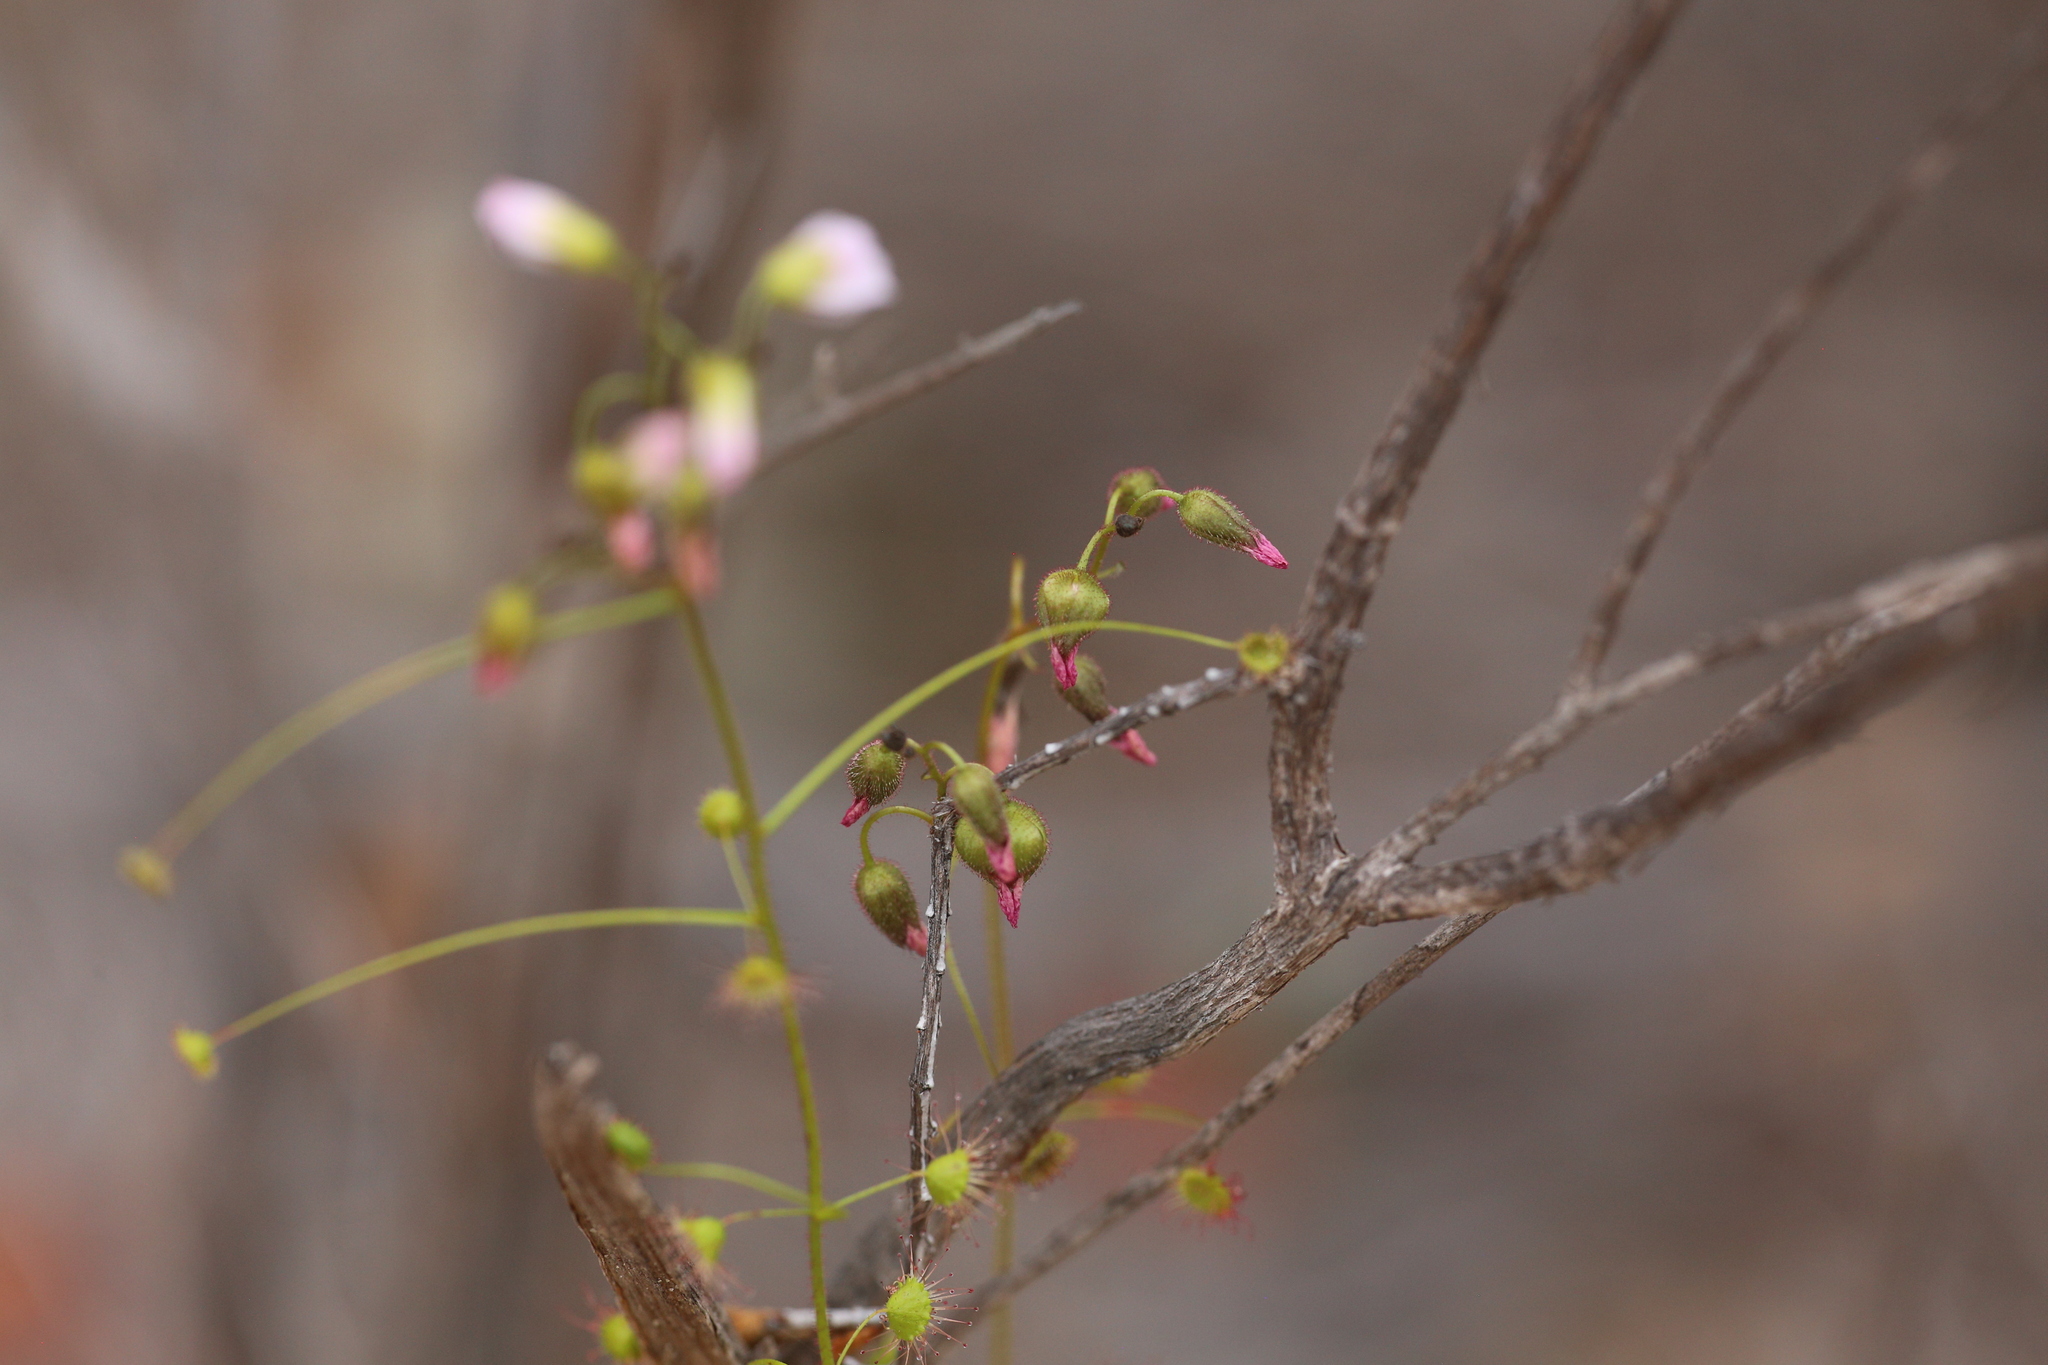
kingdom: Plantae
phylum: Tracheophyta
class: Magnoliopsida
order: Caryophyllales
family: Droseraceae
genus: Drosera
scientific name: Drosera stricticaulis
